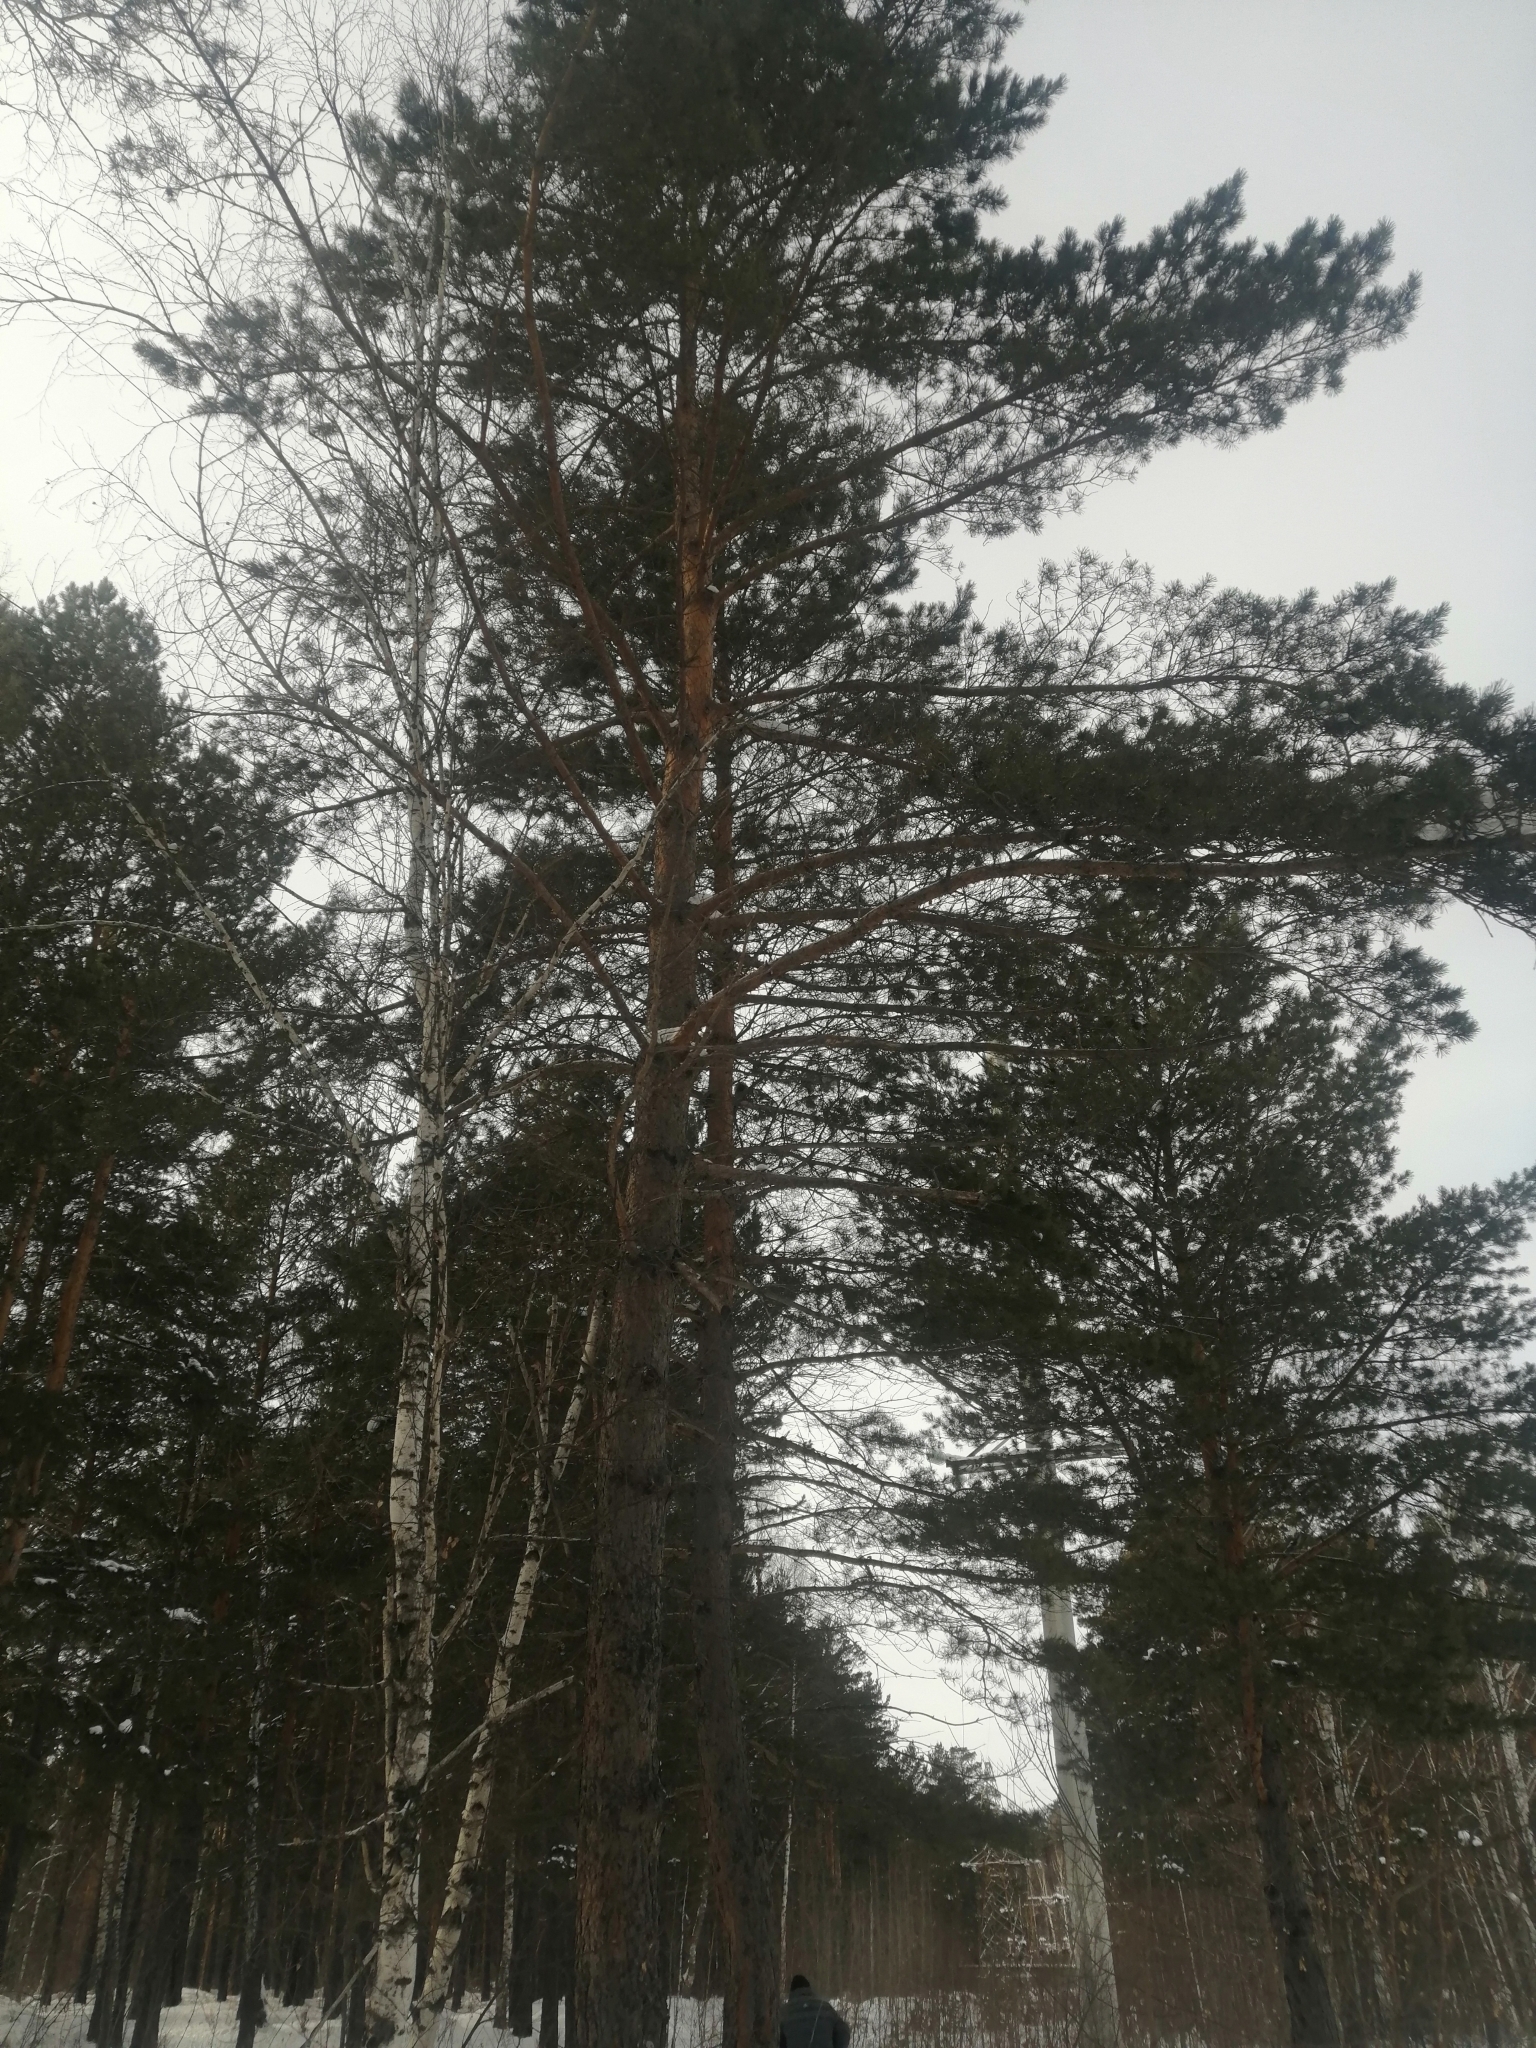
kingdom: Plantae
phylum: Tracheophyta
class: Pinopsida
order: Pinales
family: Pinaceae
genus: Pinus
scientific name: Pinus sylvestris
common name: Scots pine
